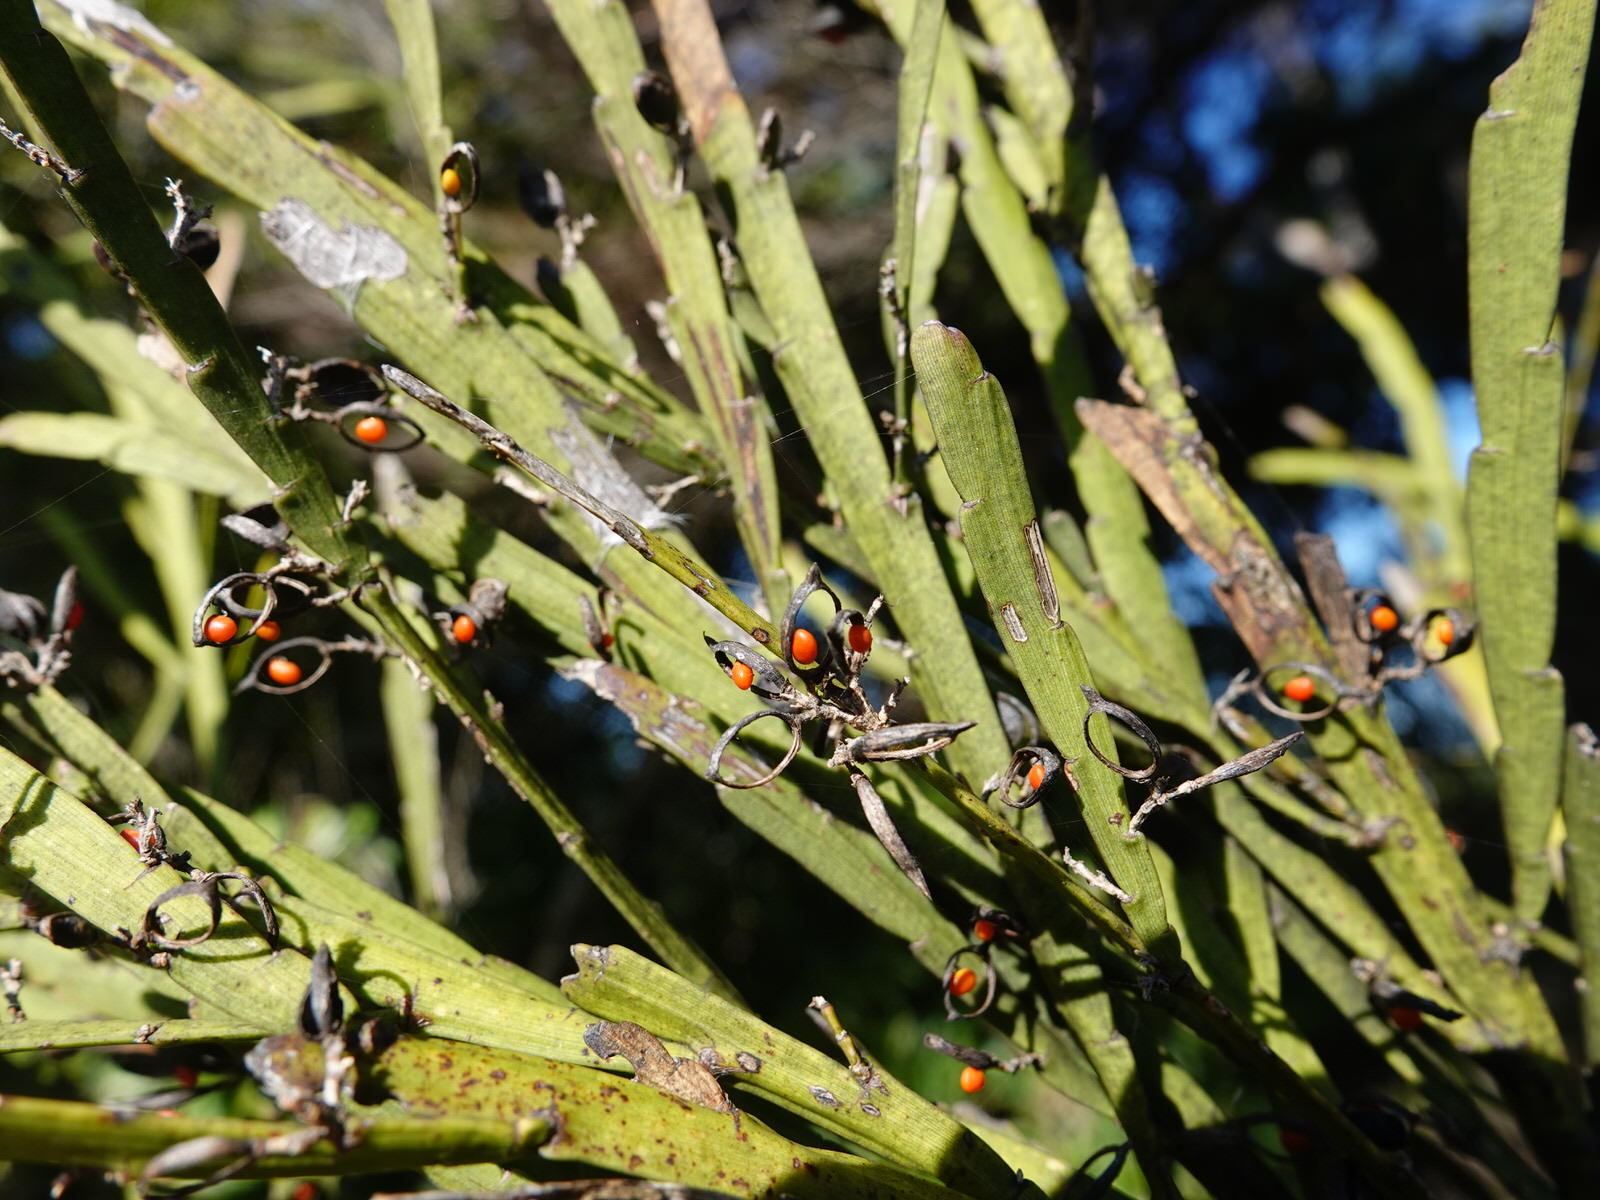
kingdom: Plantae
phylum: Tracheophyta
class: Magnoliopsida
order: Fabales
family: Fabaceae
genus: Carmichaelia
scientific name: Carmichaelia australis
